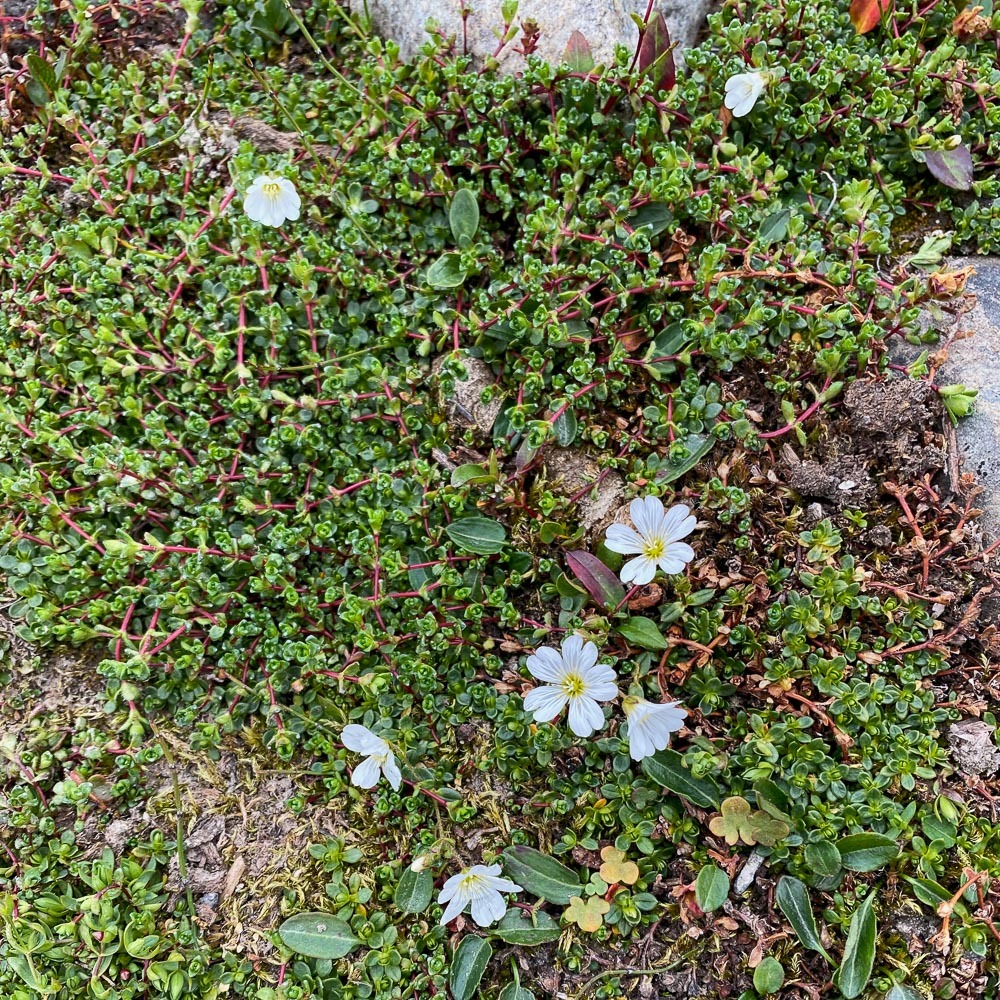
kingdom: Plantae
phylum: Tracheophyta
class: Magnoliopsida
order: Caryophyllales
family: Caryophyllaceae
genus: Cerastium
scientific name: Cerastium arcticum
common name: Arctic mouse-ear
